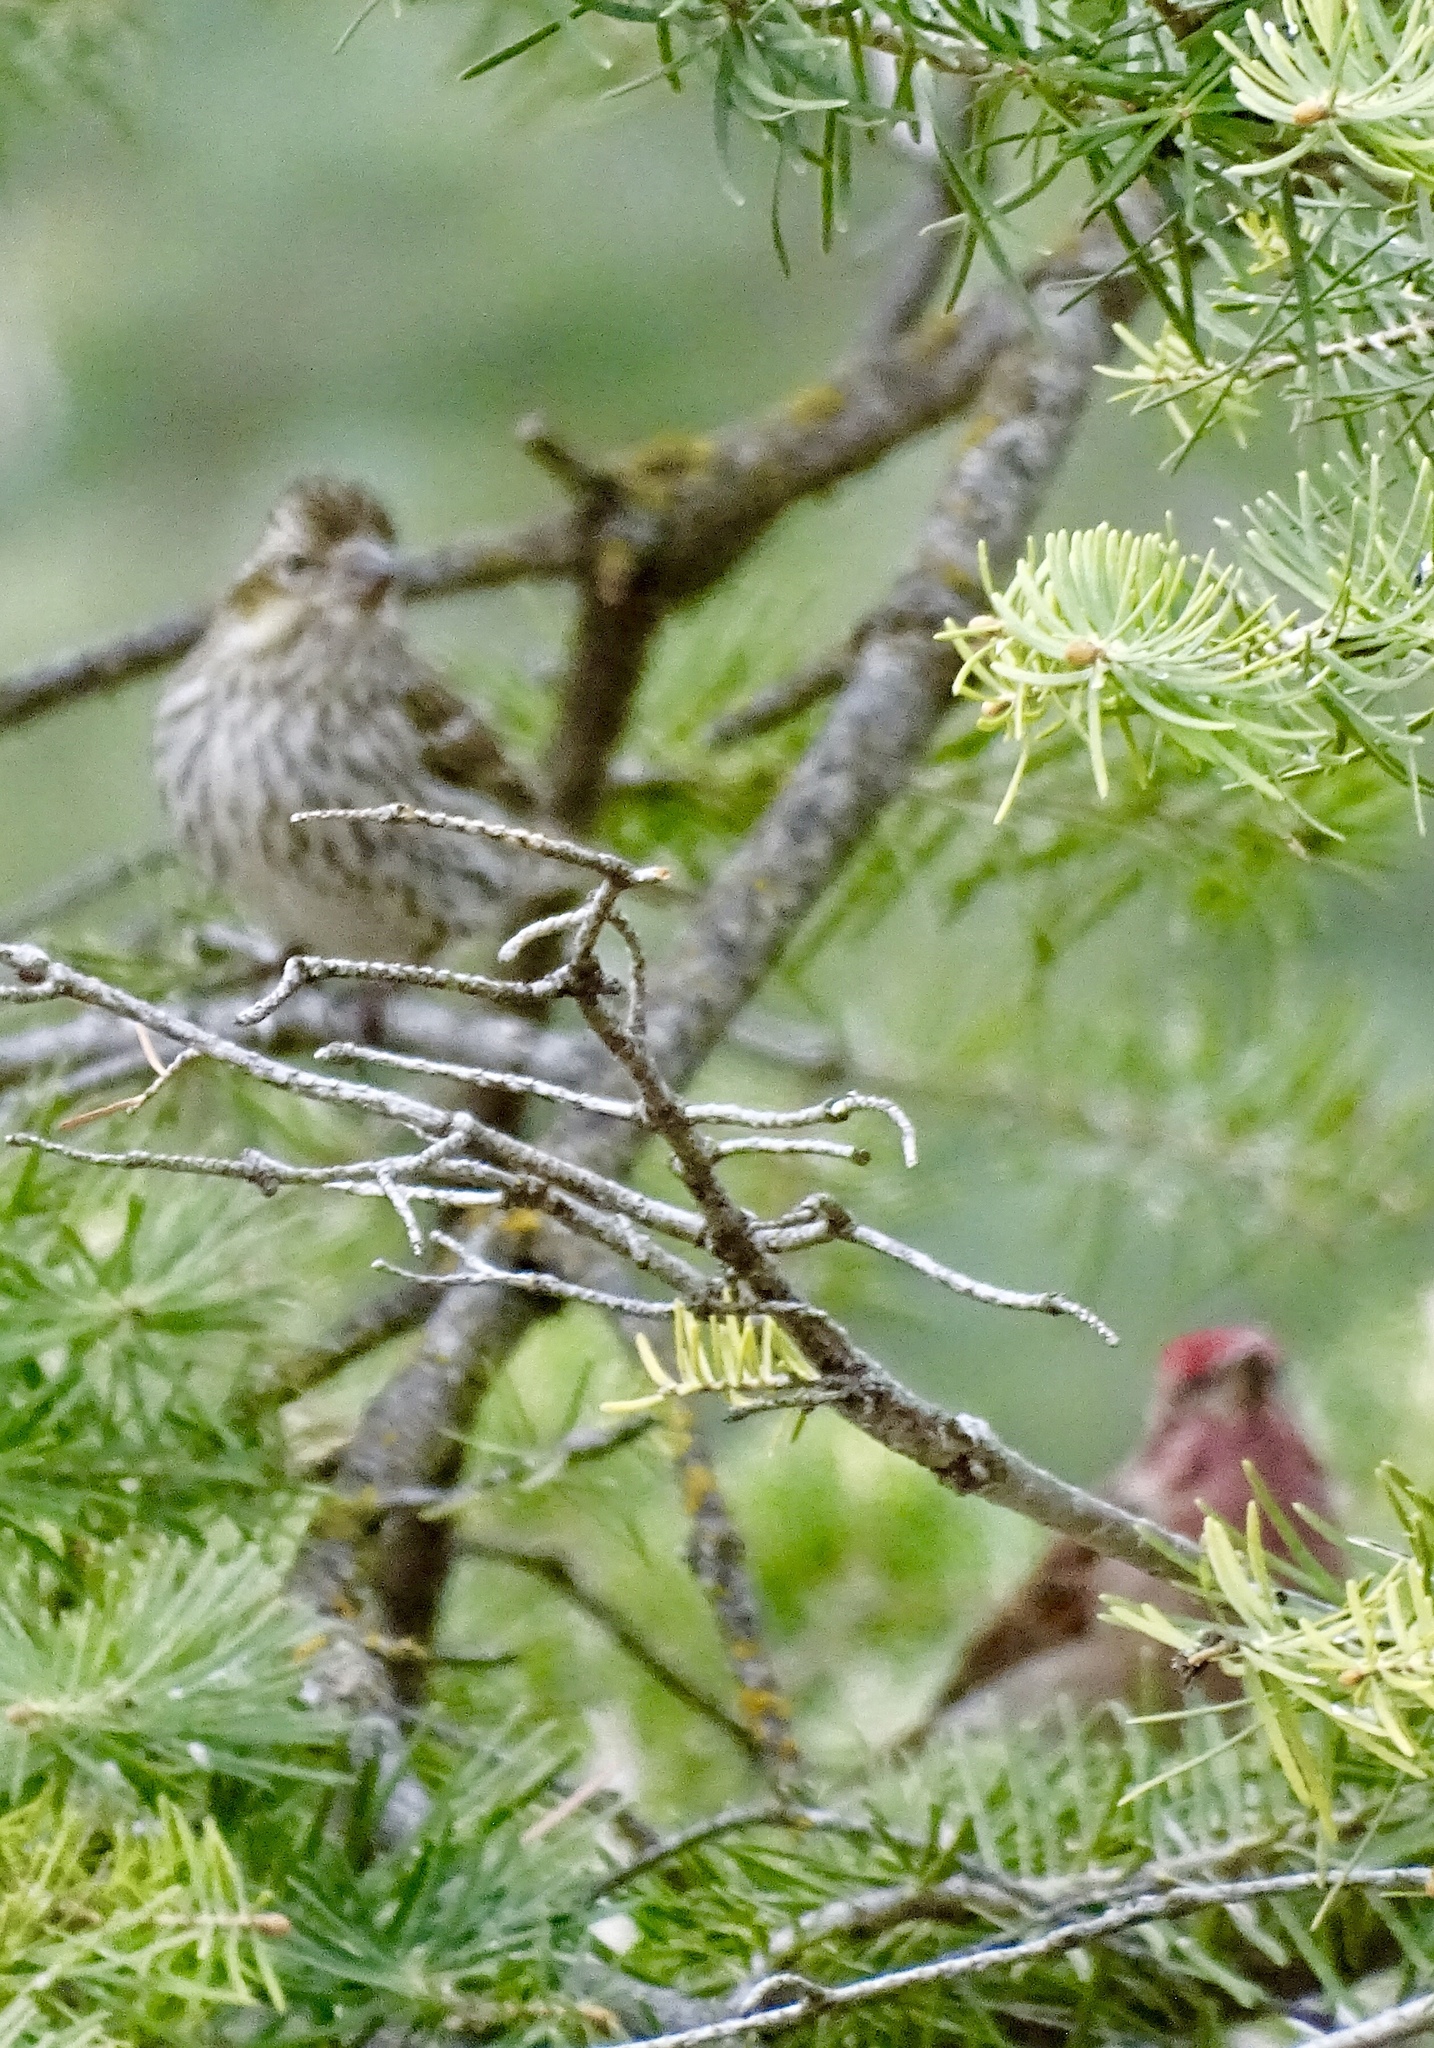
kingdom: Animalia
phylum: Chordata
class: Aves
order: Passeriformes
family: Fringillidae
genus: Haemorhous
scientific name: Haemorhous cassinii
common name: Cassin's finch
